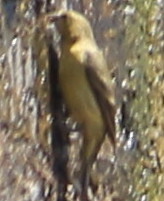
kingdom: Animalia
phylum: Chordata
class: Aves
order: Passeriformes
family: Fringillidae
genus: Spinus
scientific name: Spinus psaltria
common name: Lesser goldfinch
